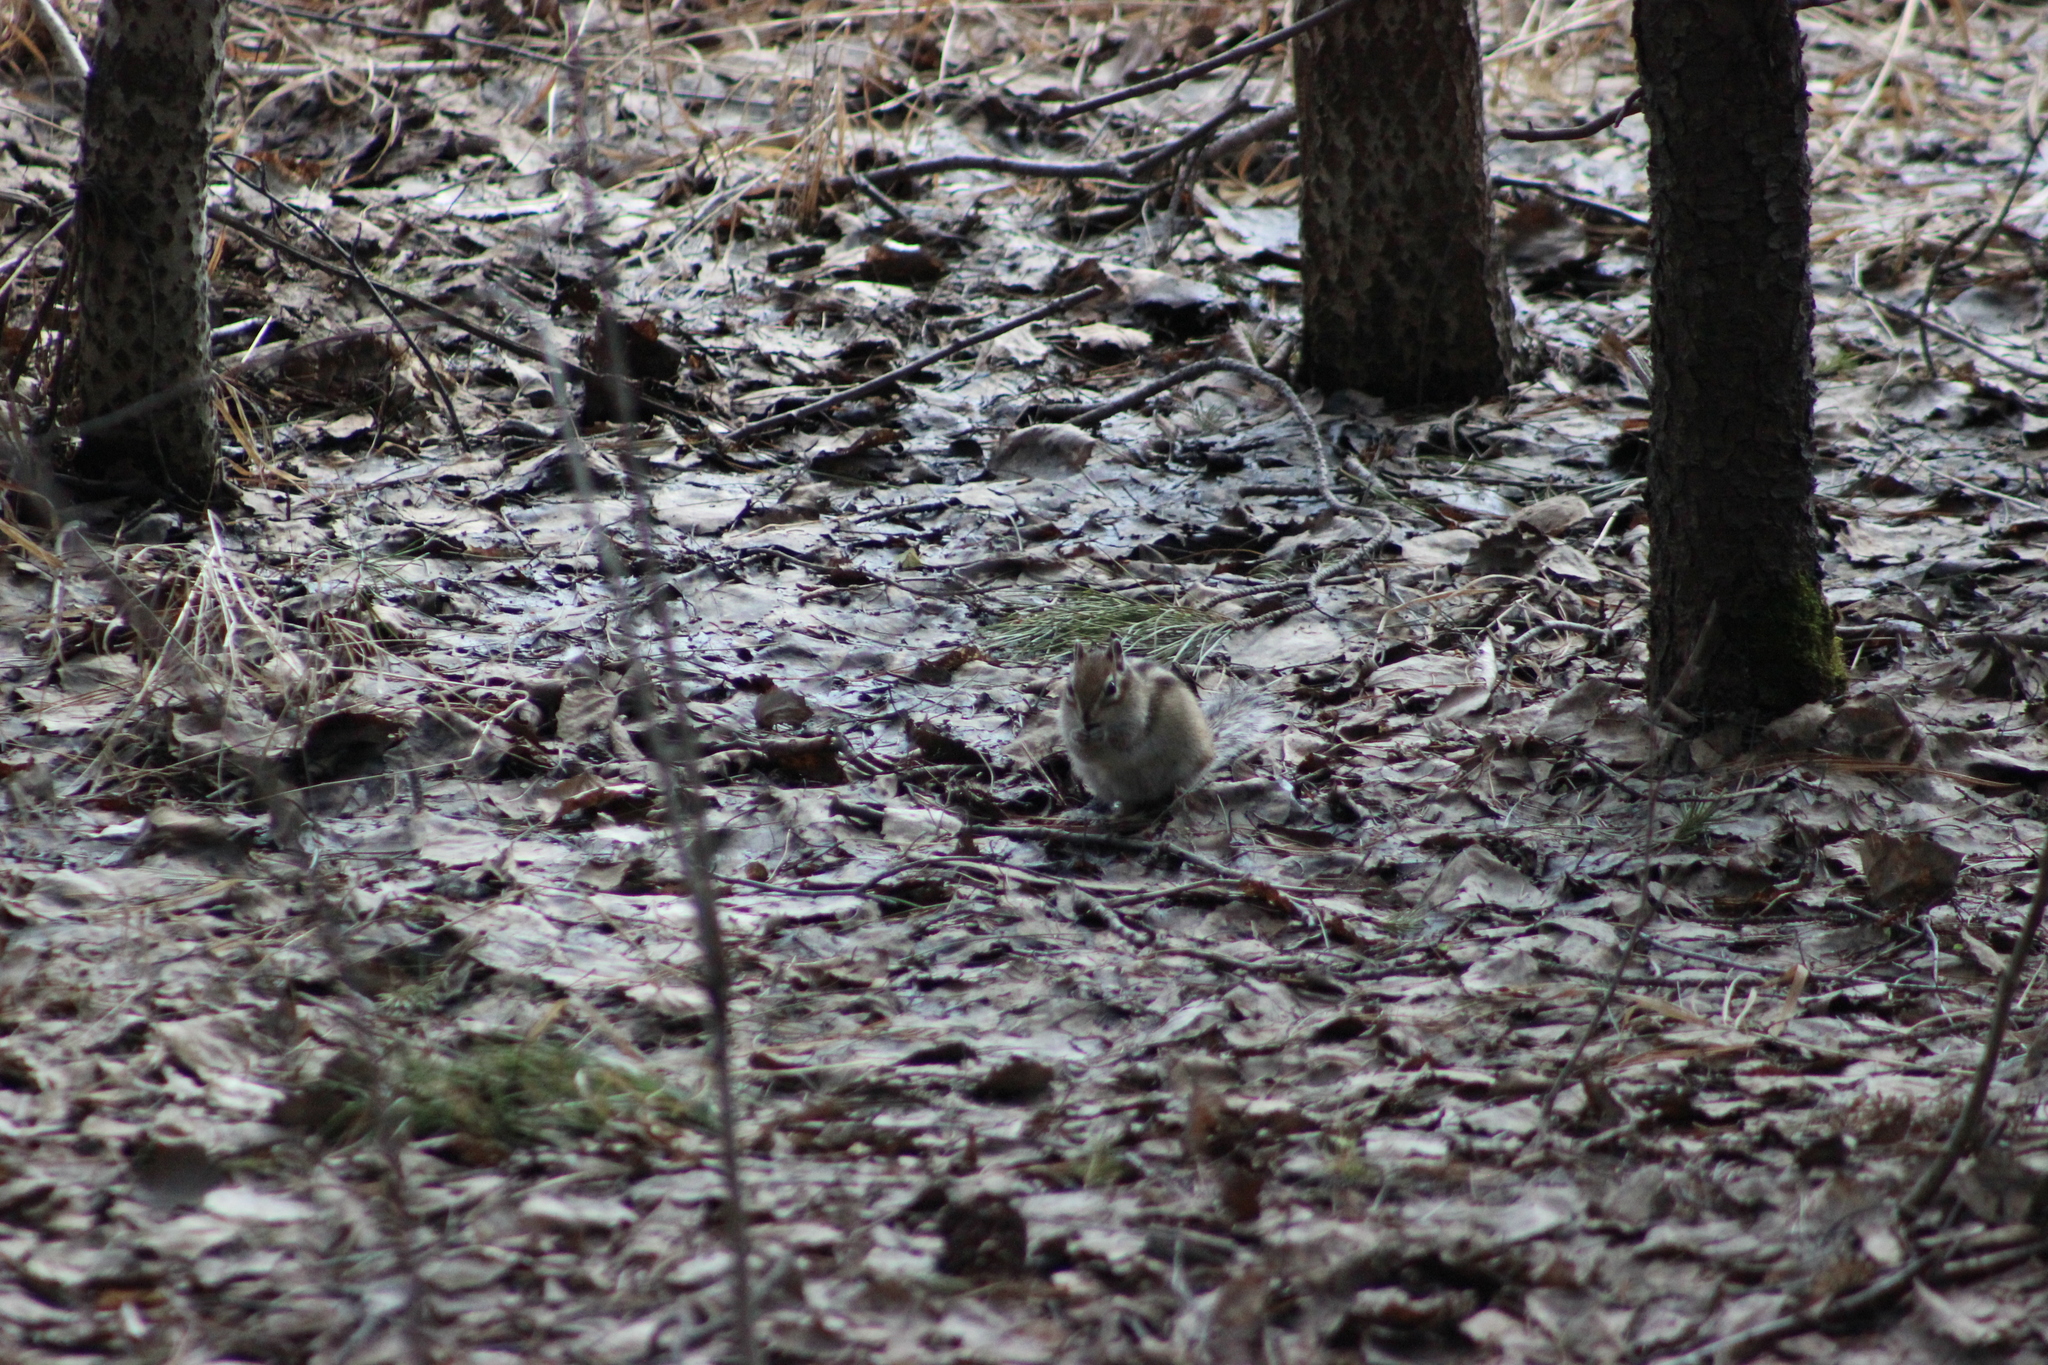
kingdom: Animalia
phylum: Chordata
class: Mammalia
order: Rodentia
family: Sciuridae
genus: Tamias
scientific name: Tamias sibiricus
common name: Siberian chipmunk
